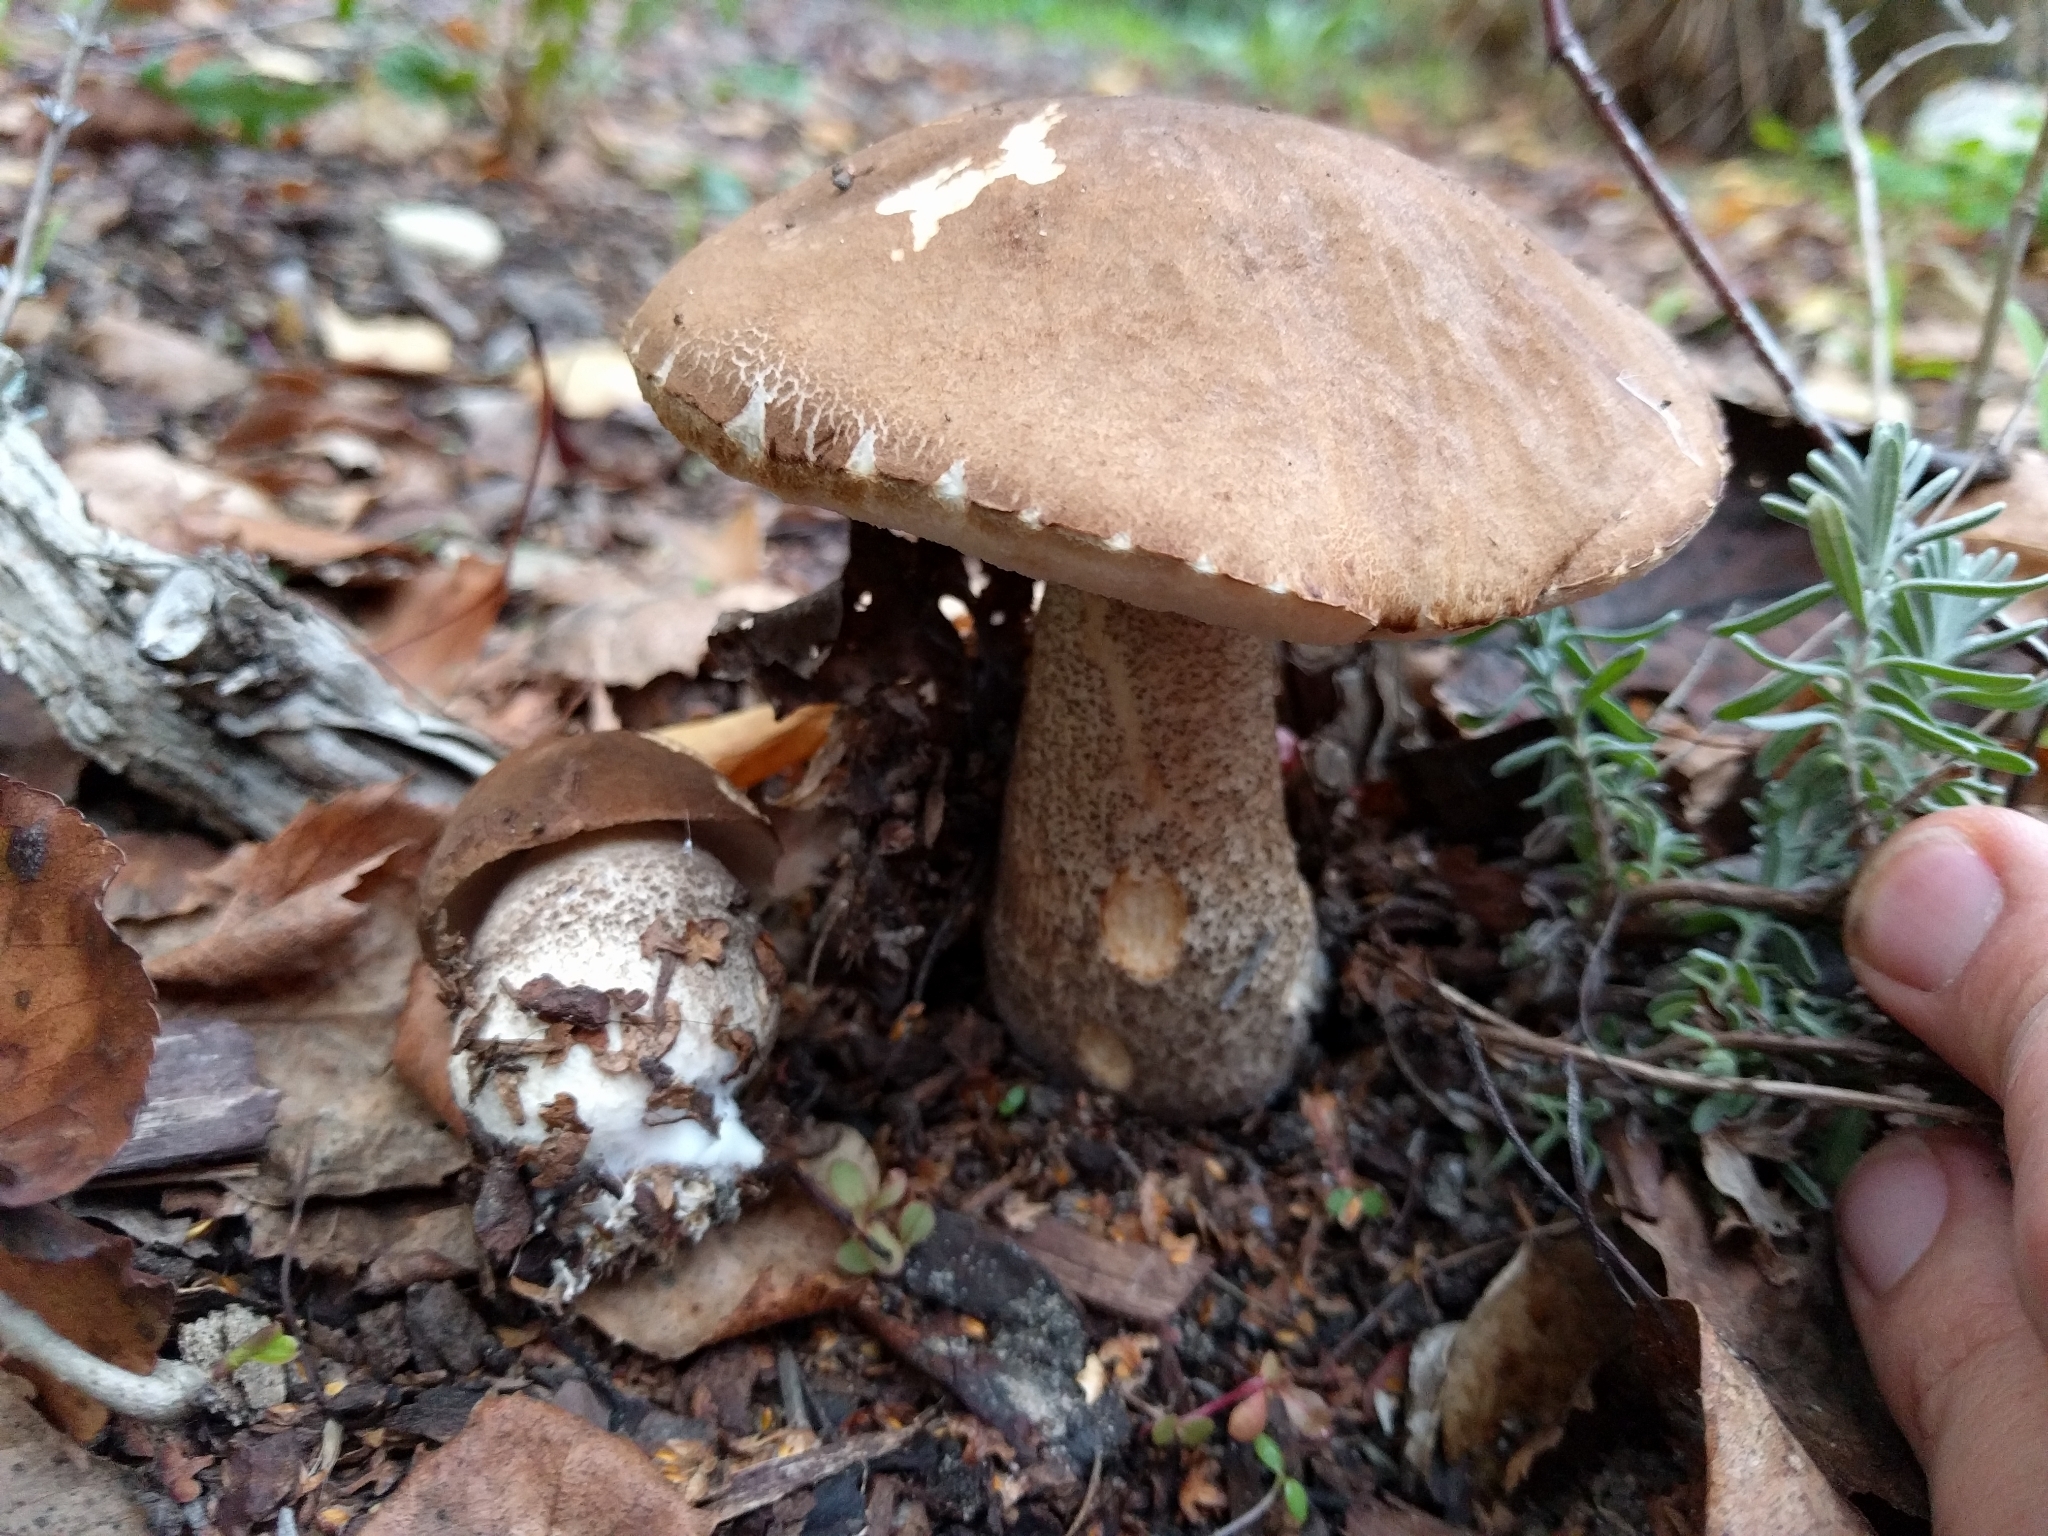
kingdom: Fungi
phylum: Basidiomycota
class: Agaricomycetes
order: Boletales
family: Boletaceae
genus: Leccinum
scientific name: Leccinum scabrum
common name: Blushing bolete
